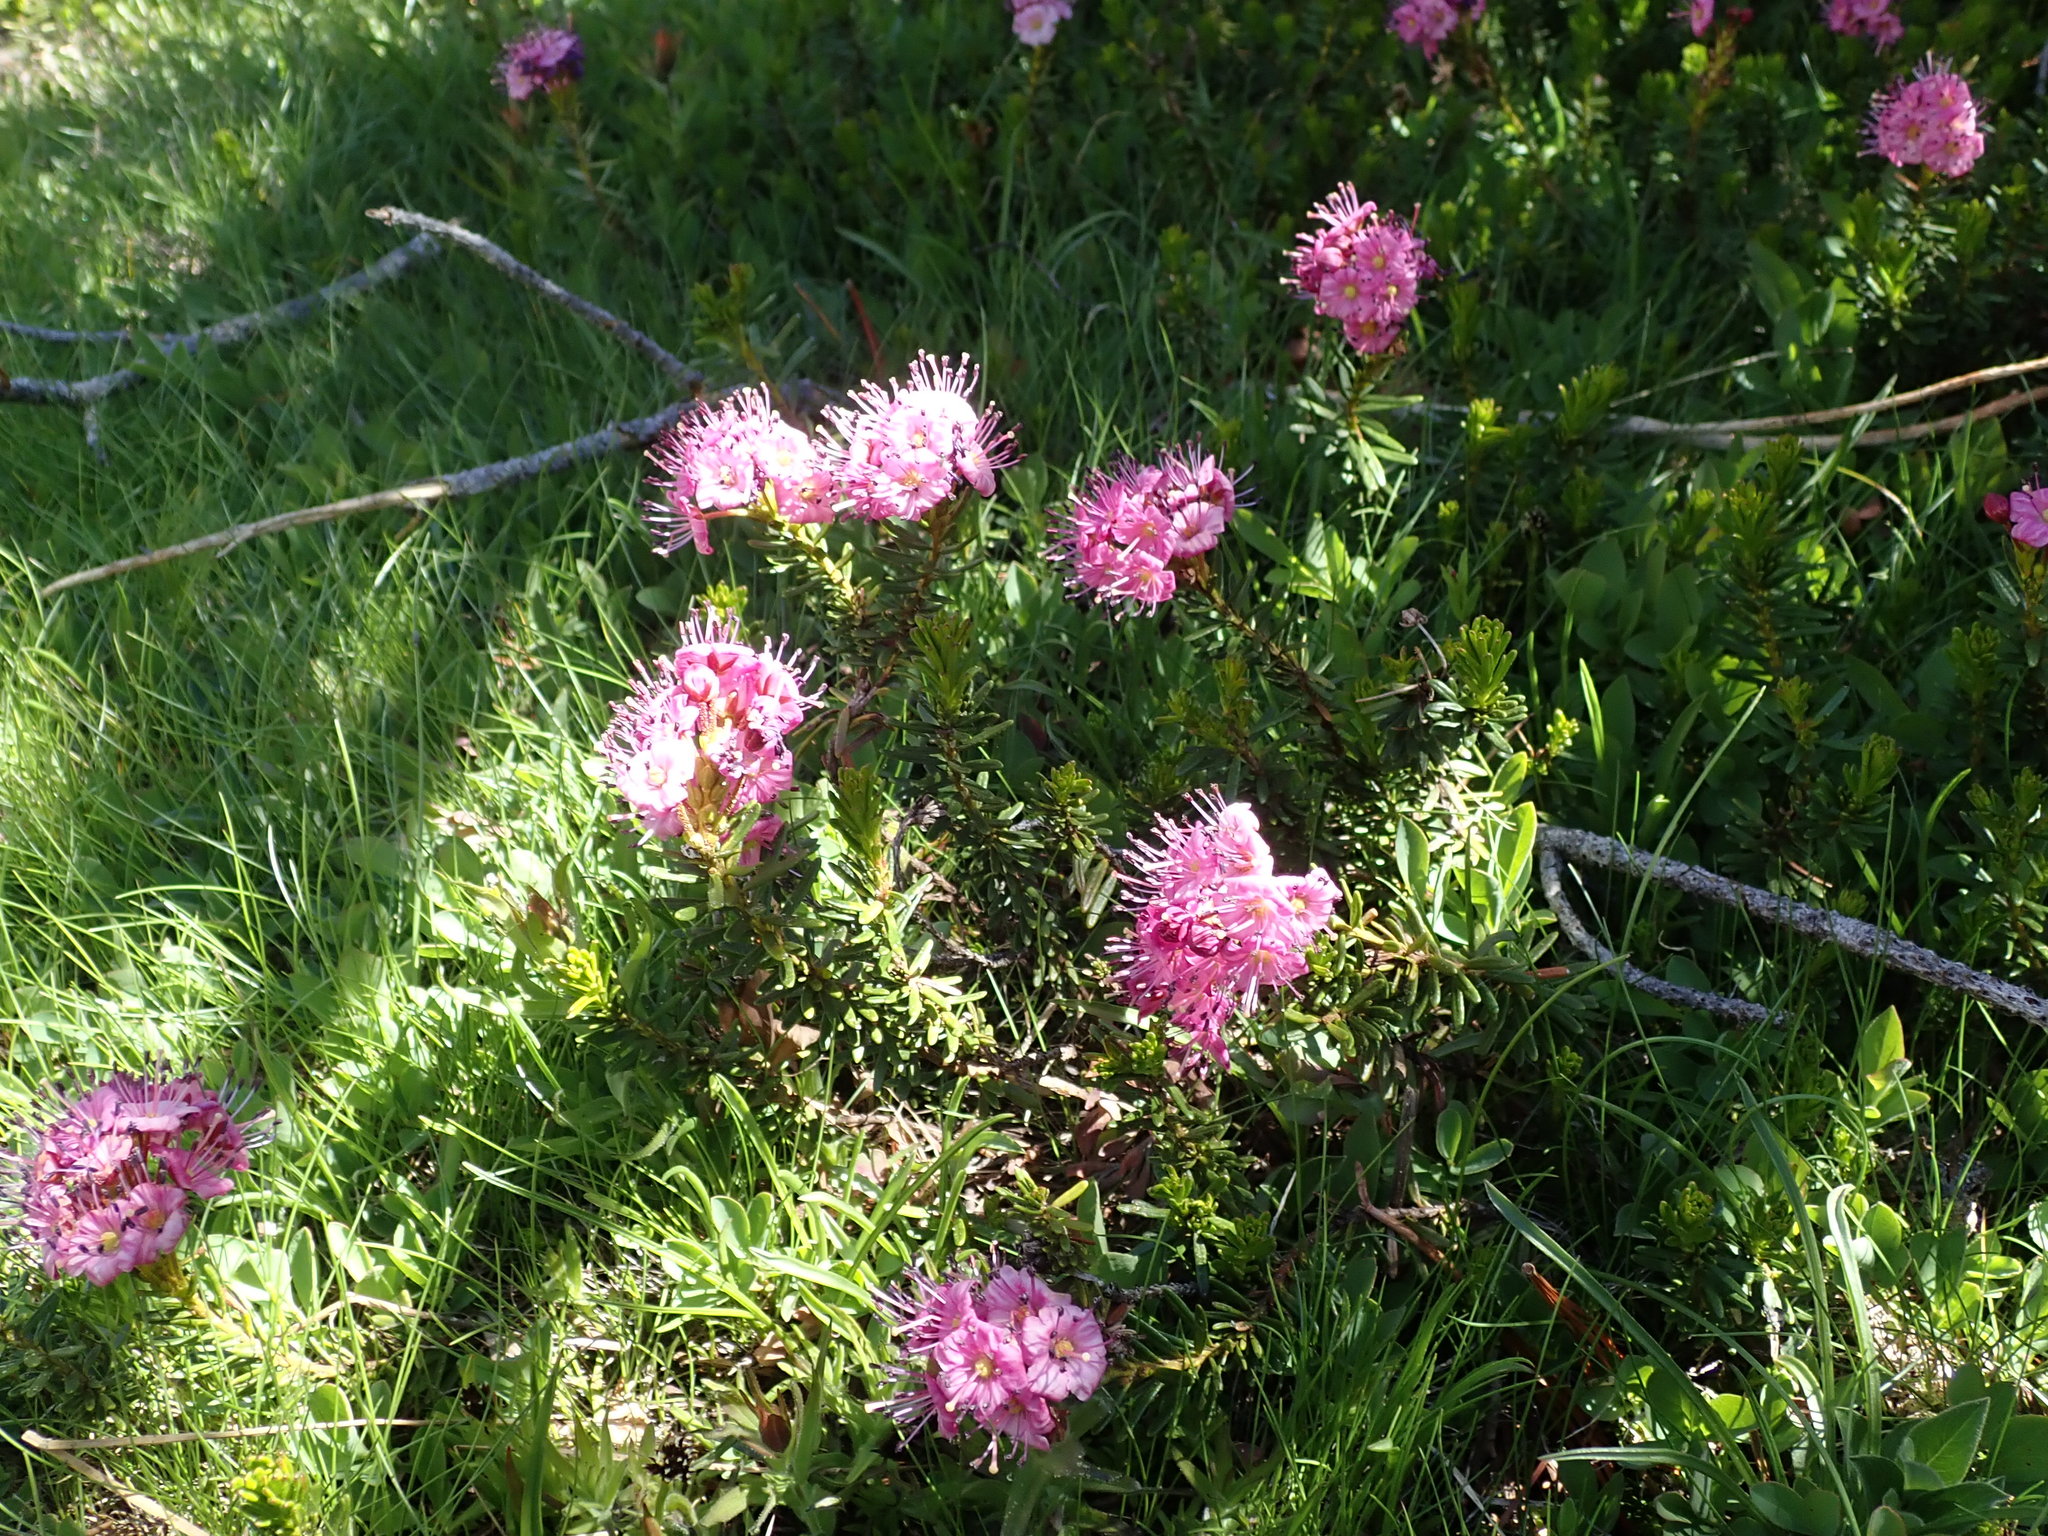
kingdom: Plantae
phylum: Tracheophyta
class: Magnoliopsida
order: Ericales
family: Ericaceae
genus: Phyllodoce
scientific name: Phyllodoce breweri
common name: Brewer's mountain-heather
